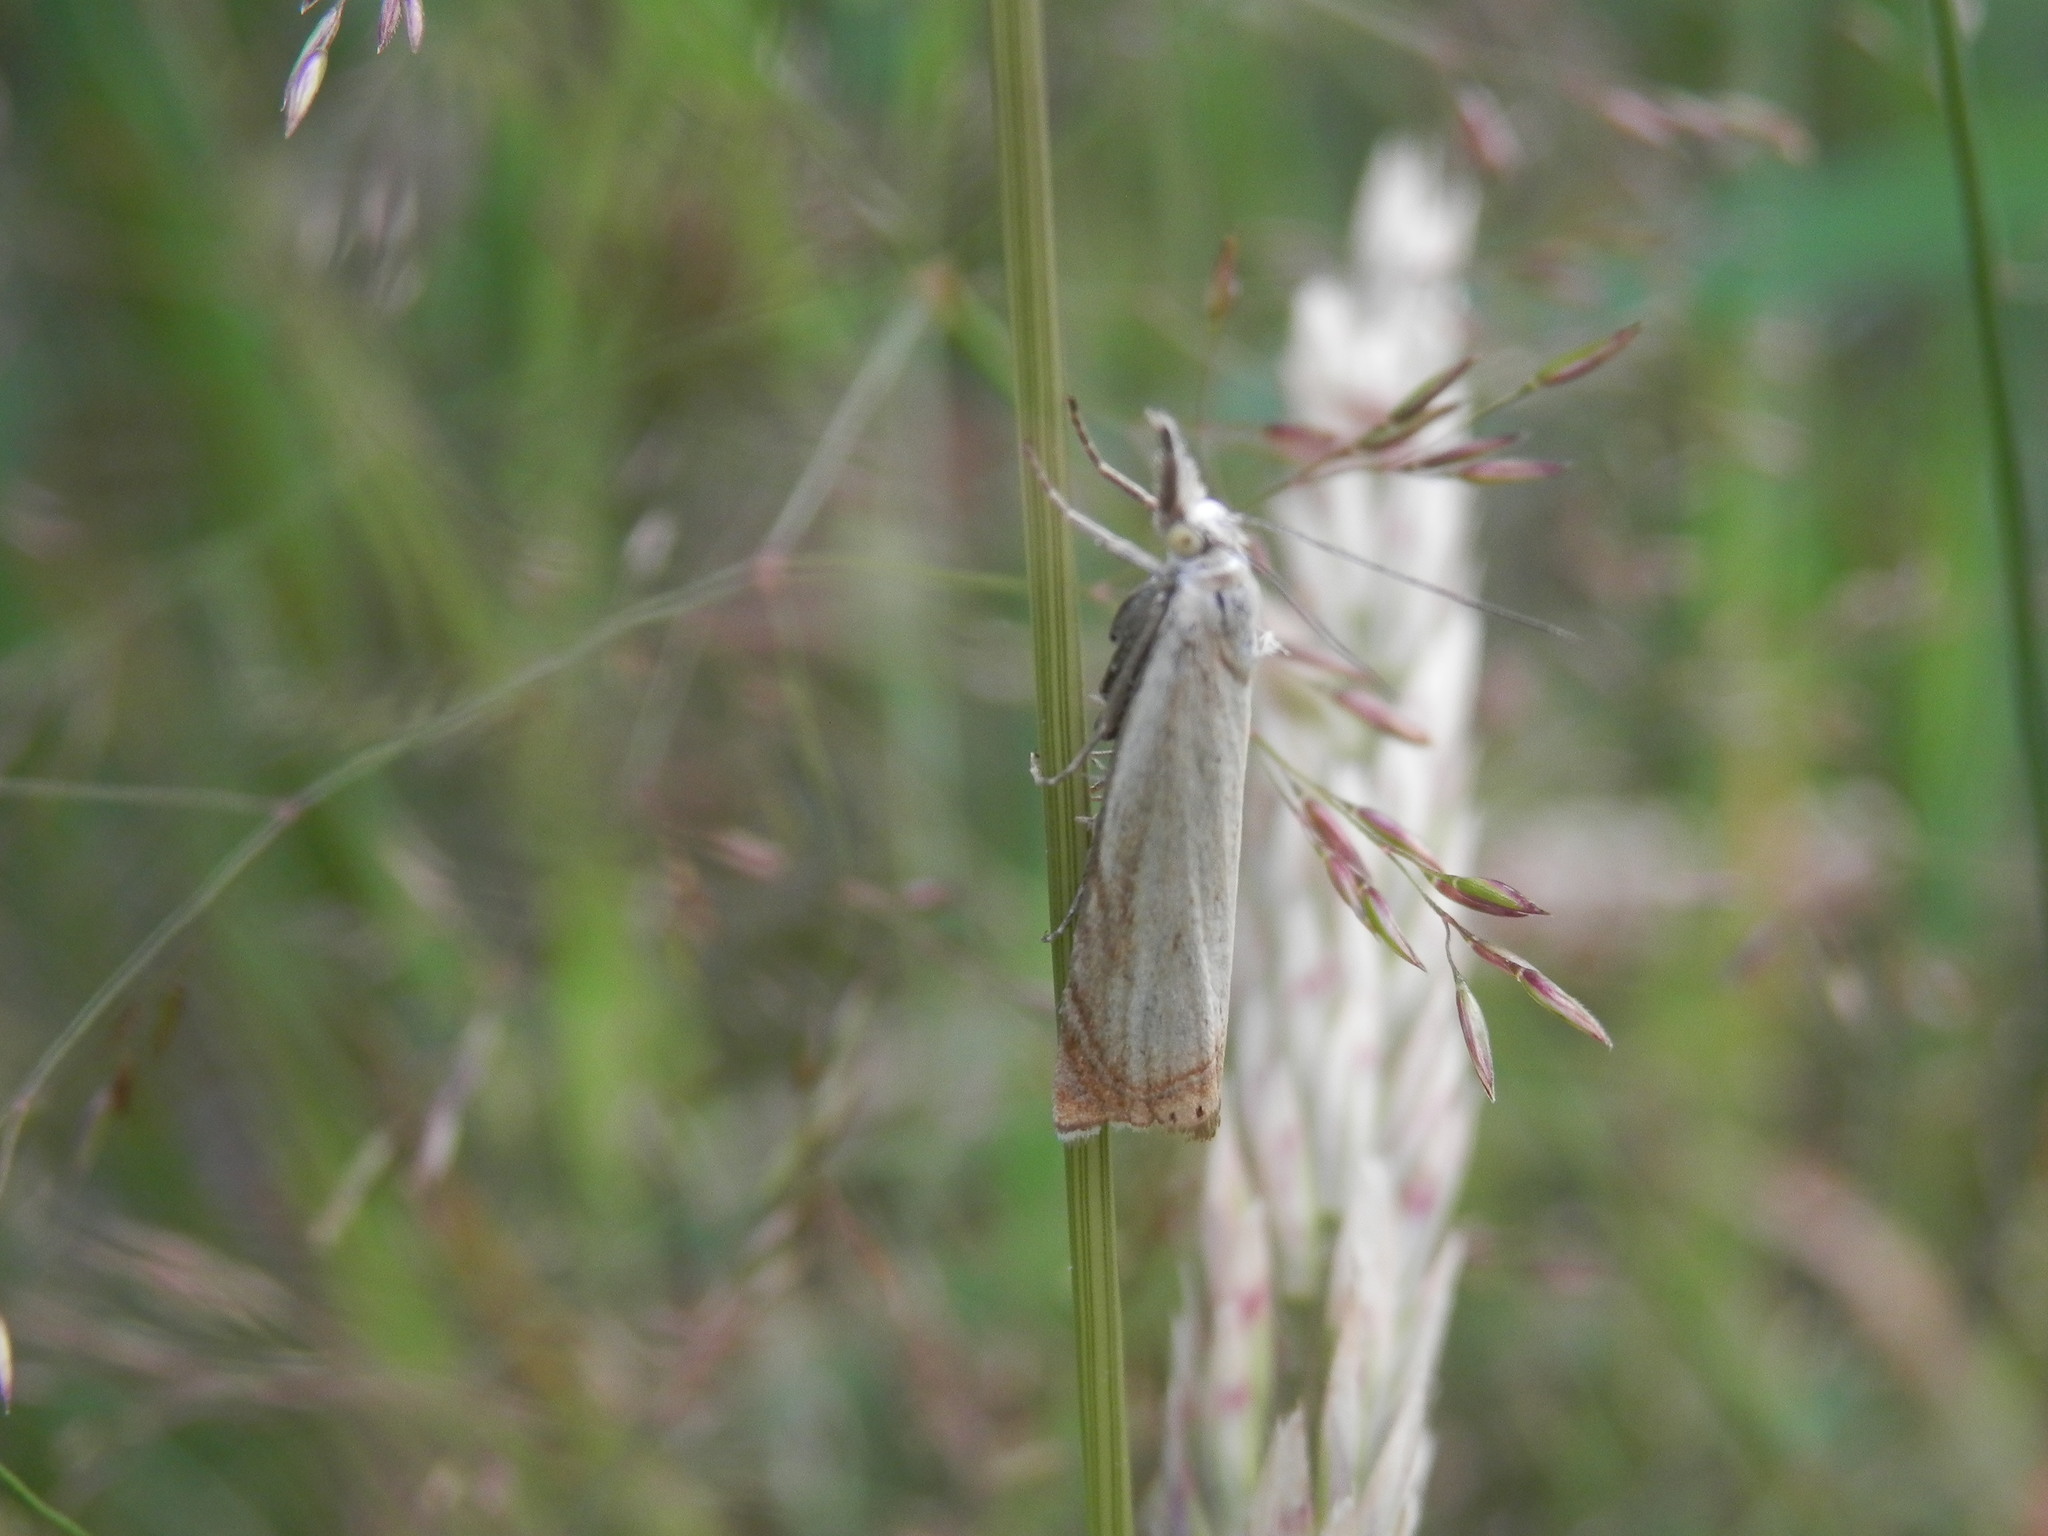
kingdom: Animalia
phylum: Arthropoda
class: Insecta
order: Lepidoptera
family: Crambidae
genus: Chrysoteuchia
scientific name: Chrysoteuchia culmella
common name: Garden grass-veneer
